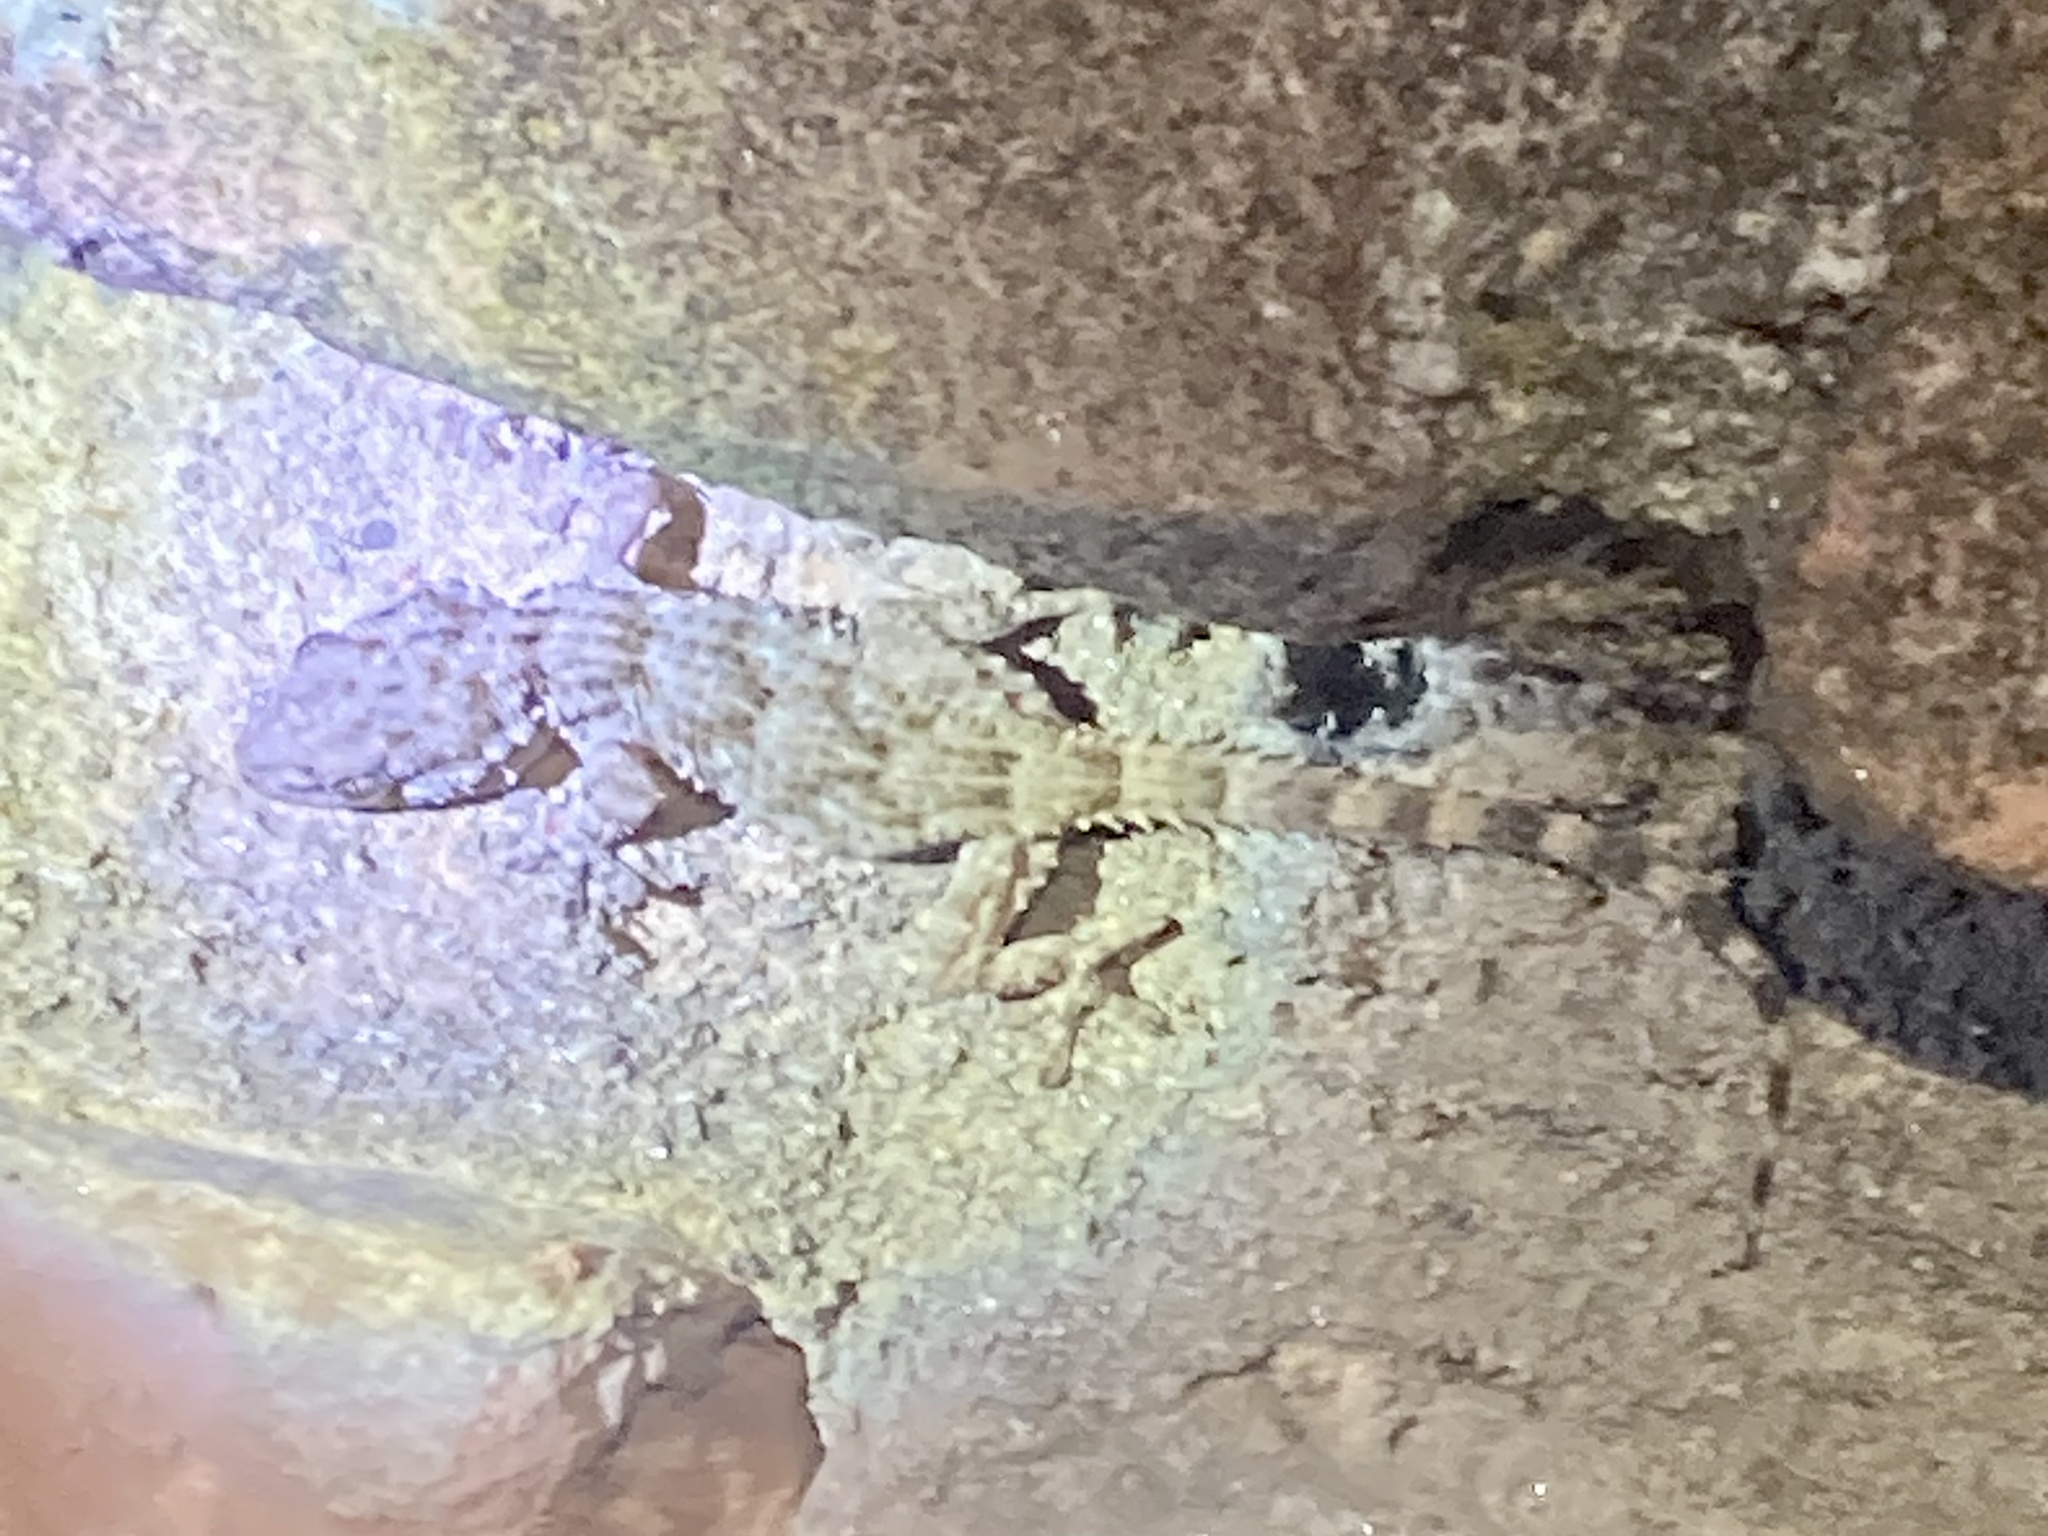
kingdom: Animalia
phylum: Chordata
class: Squamata
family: Phyllodactylidae
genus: Tarentola
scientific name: Tarentola mauritanica
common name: Moorish gecko
